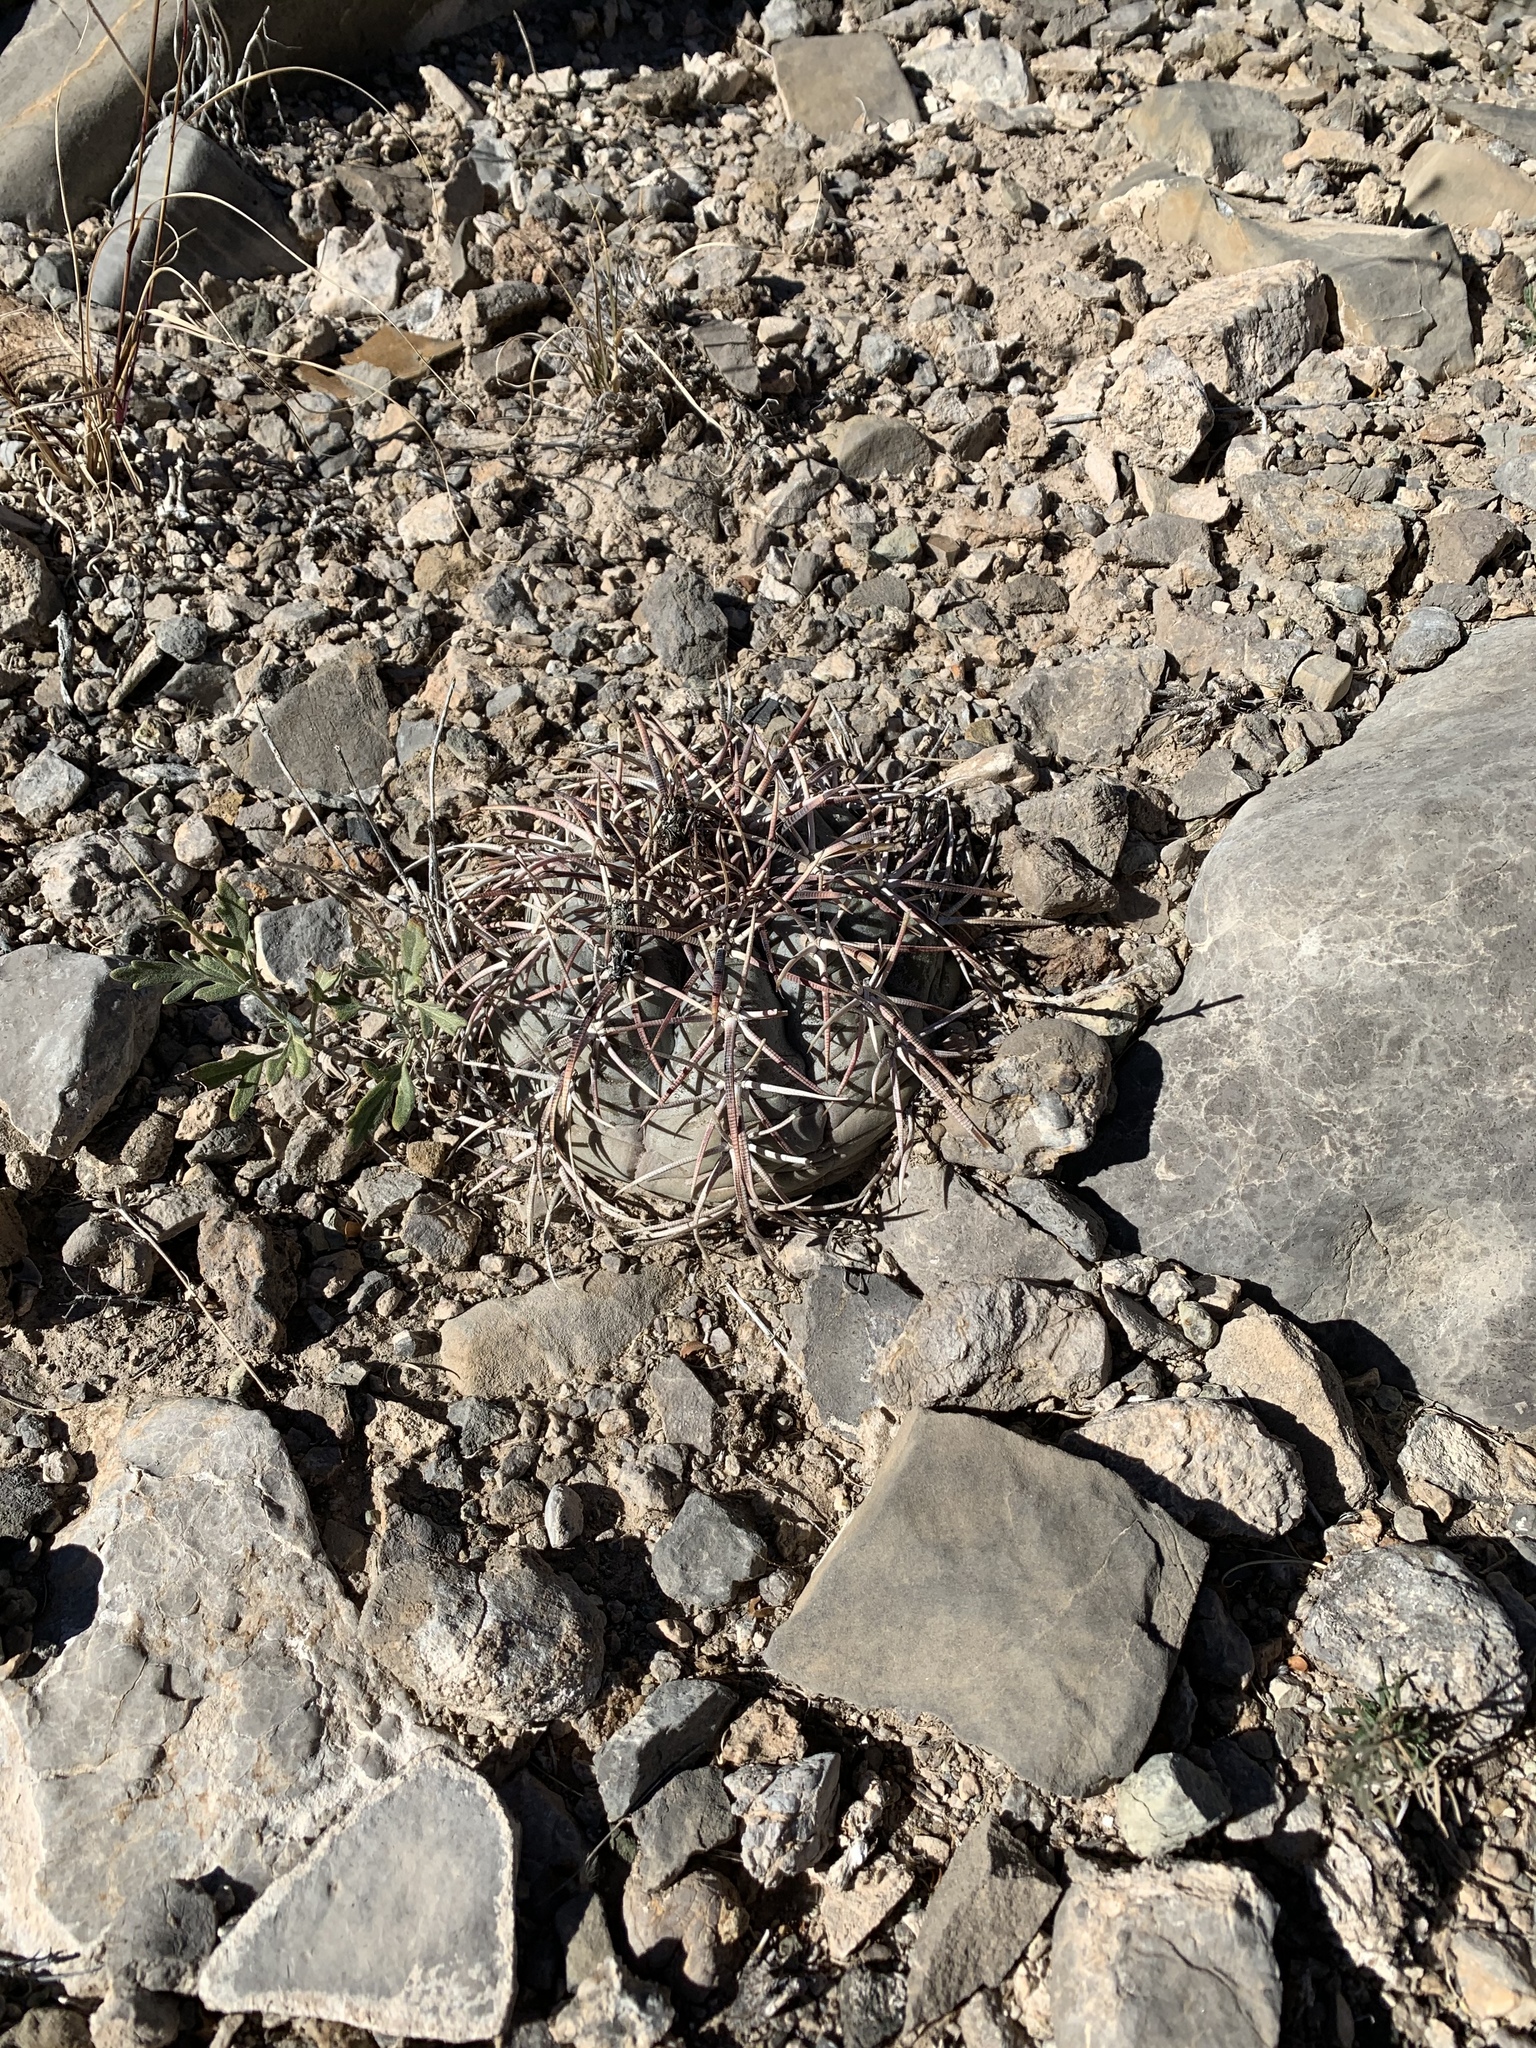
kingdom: Plantae
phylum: Tracheophyta
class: Magnoliopsida
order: Caryophyllales
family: Cactaceae
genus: Echinocactus
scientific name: Echinocactus horizonthalonius
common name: Devilshead
